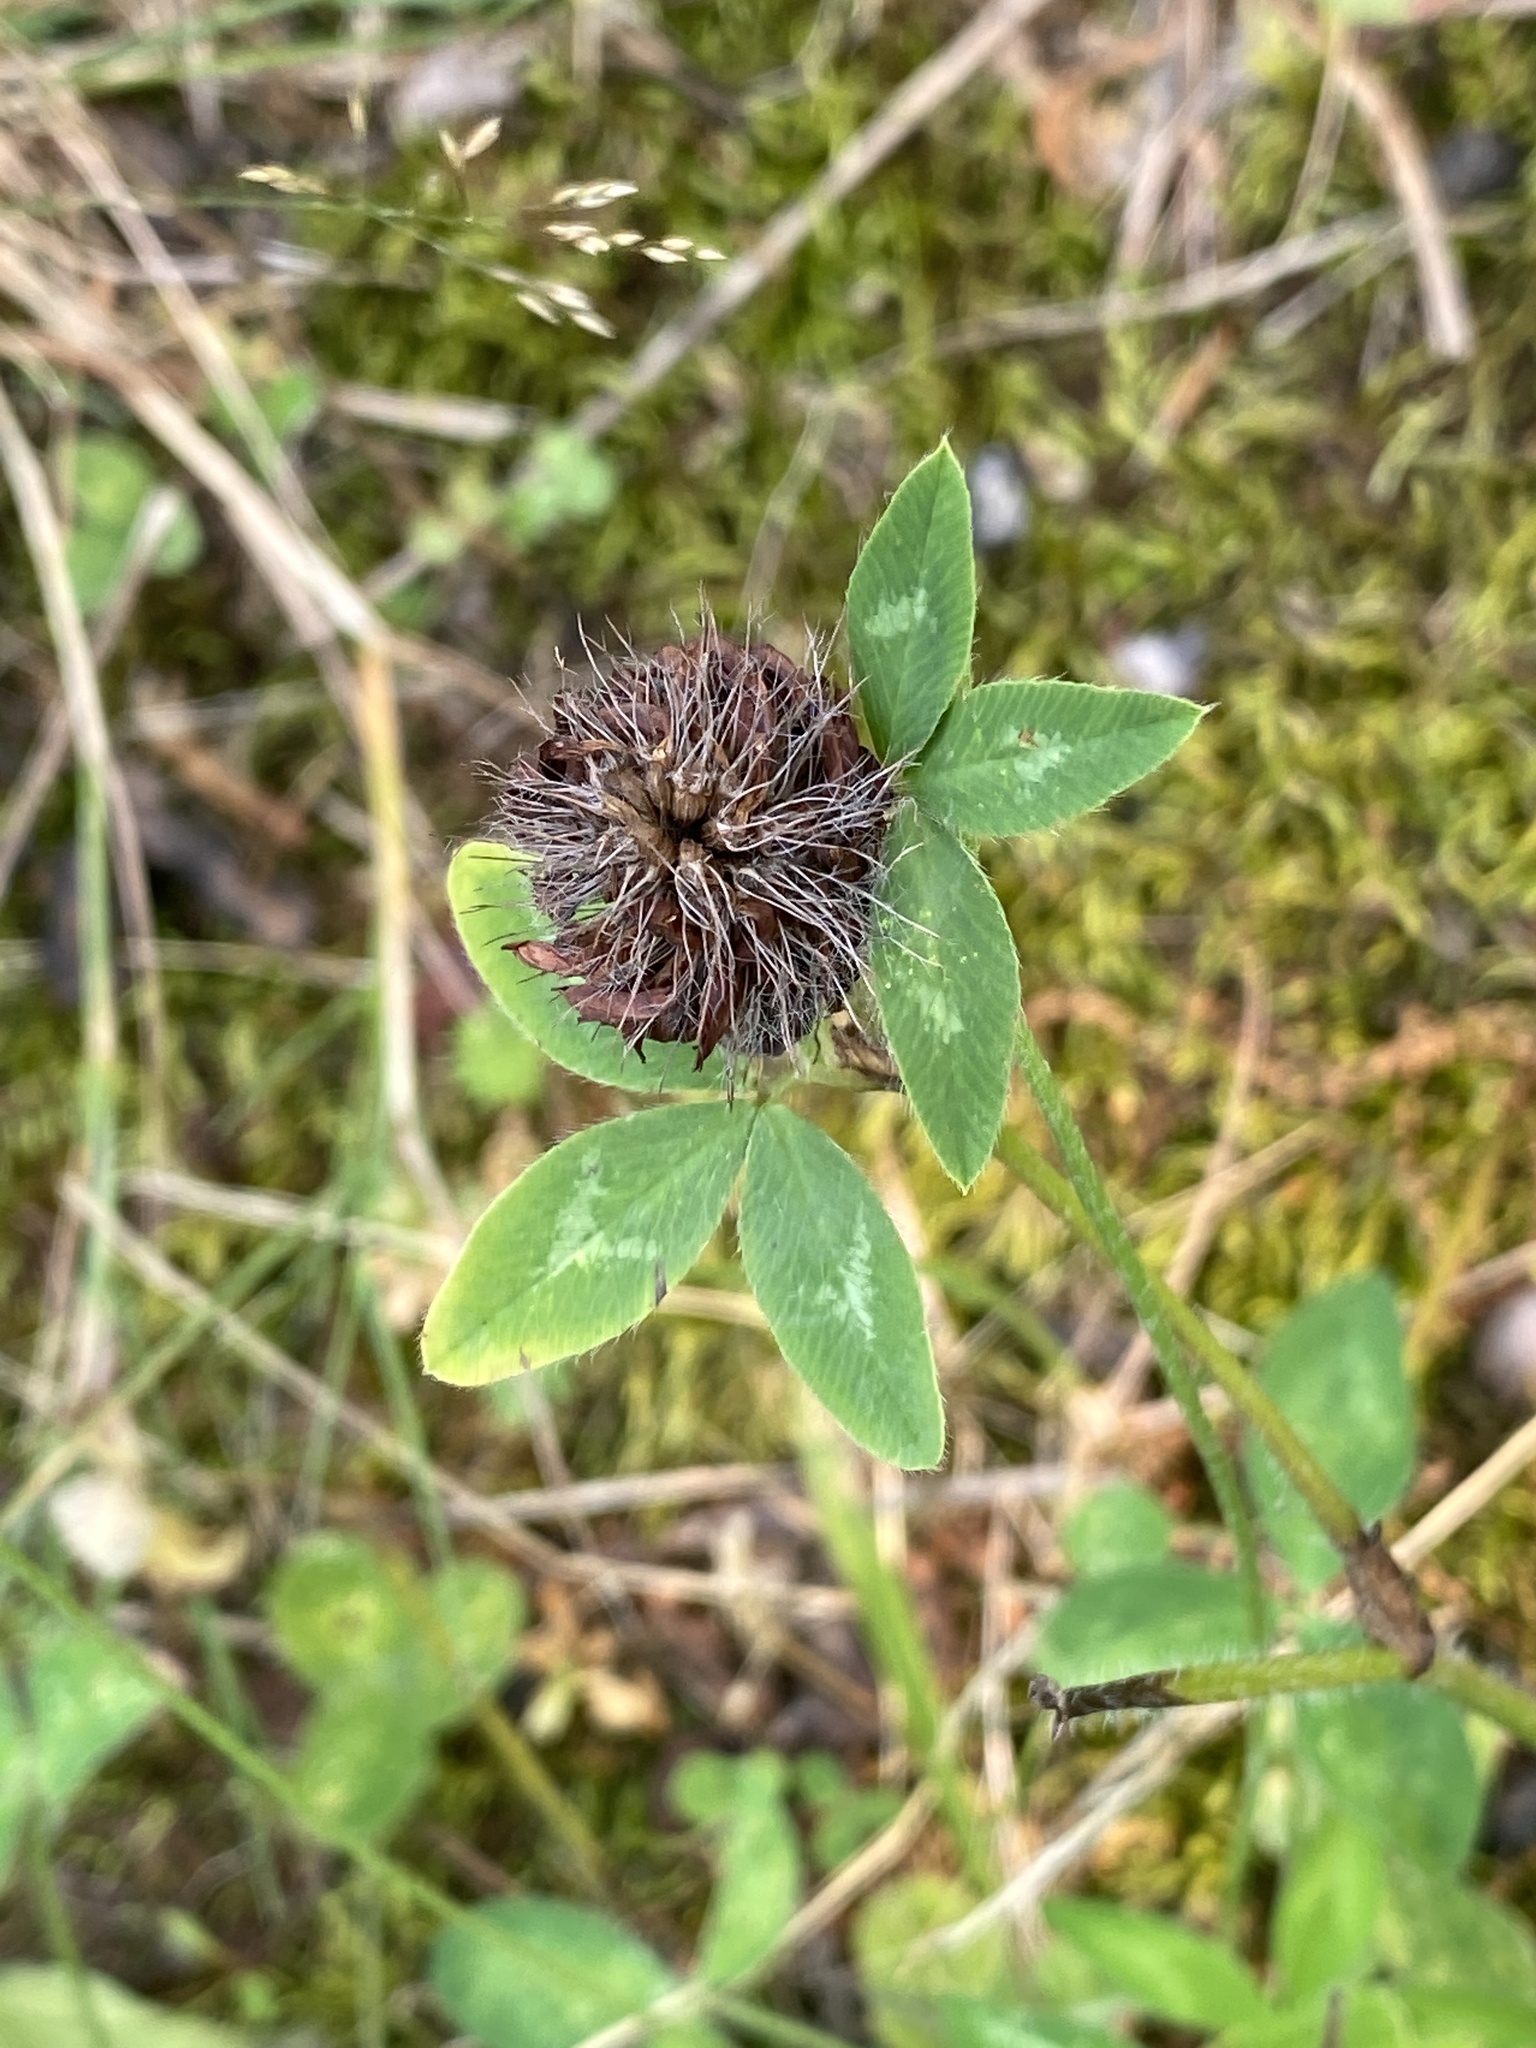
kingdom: Plantae
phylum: Tracheophyta
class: Magnoliopsida
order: Fabales
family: Fabaceae
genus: Trifolium
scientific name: Trifolium pratense
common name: Red clover
